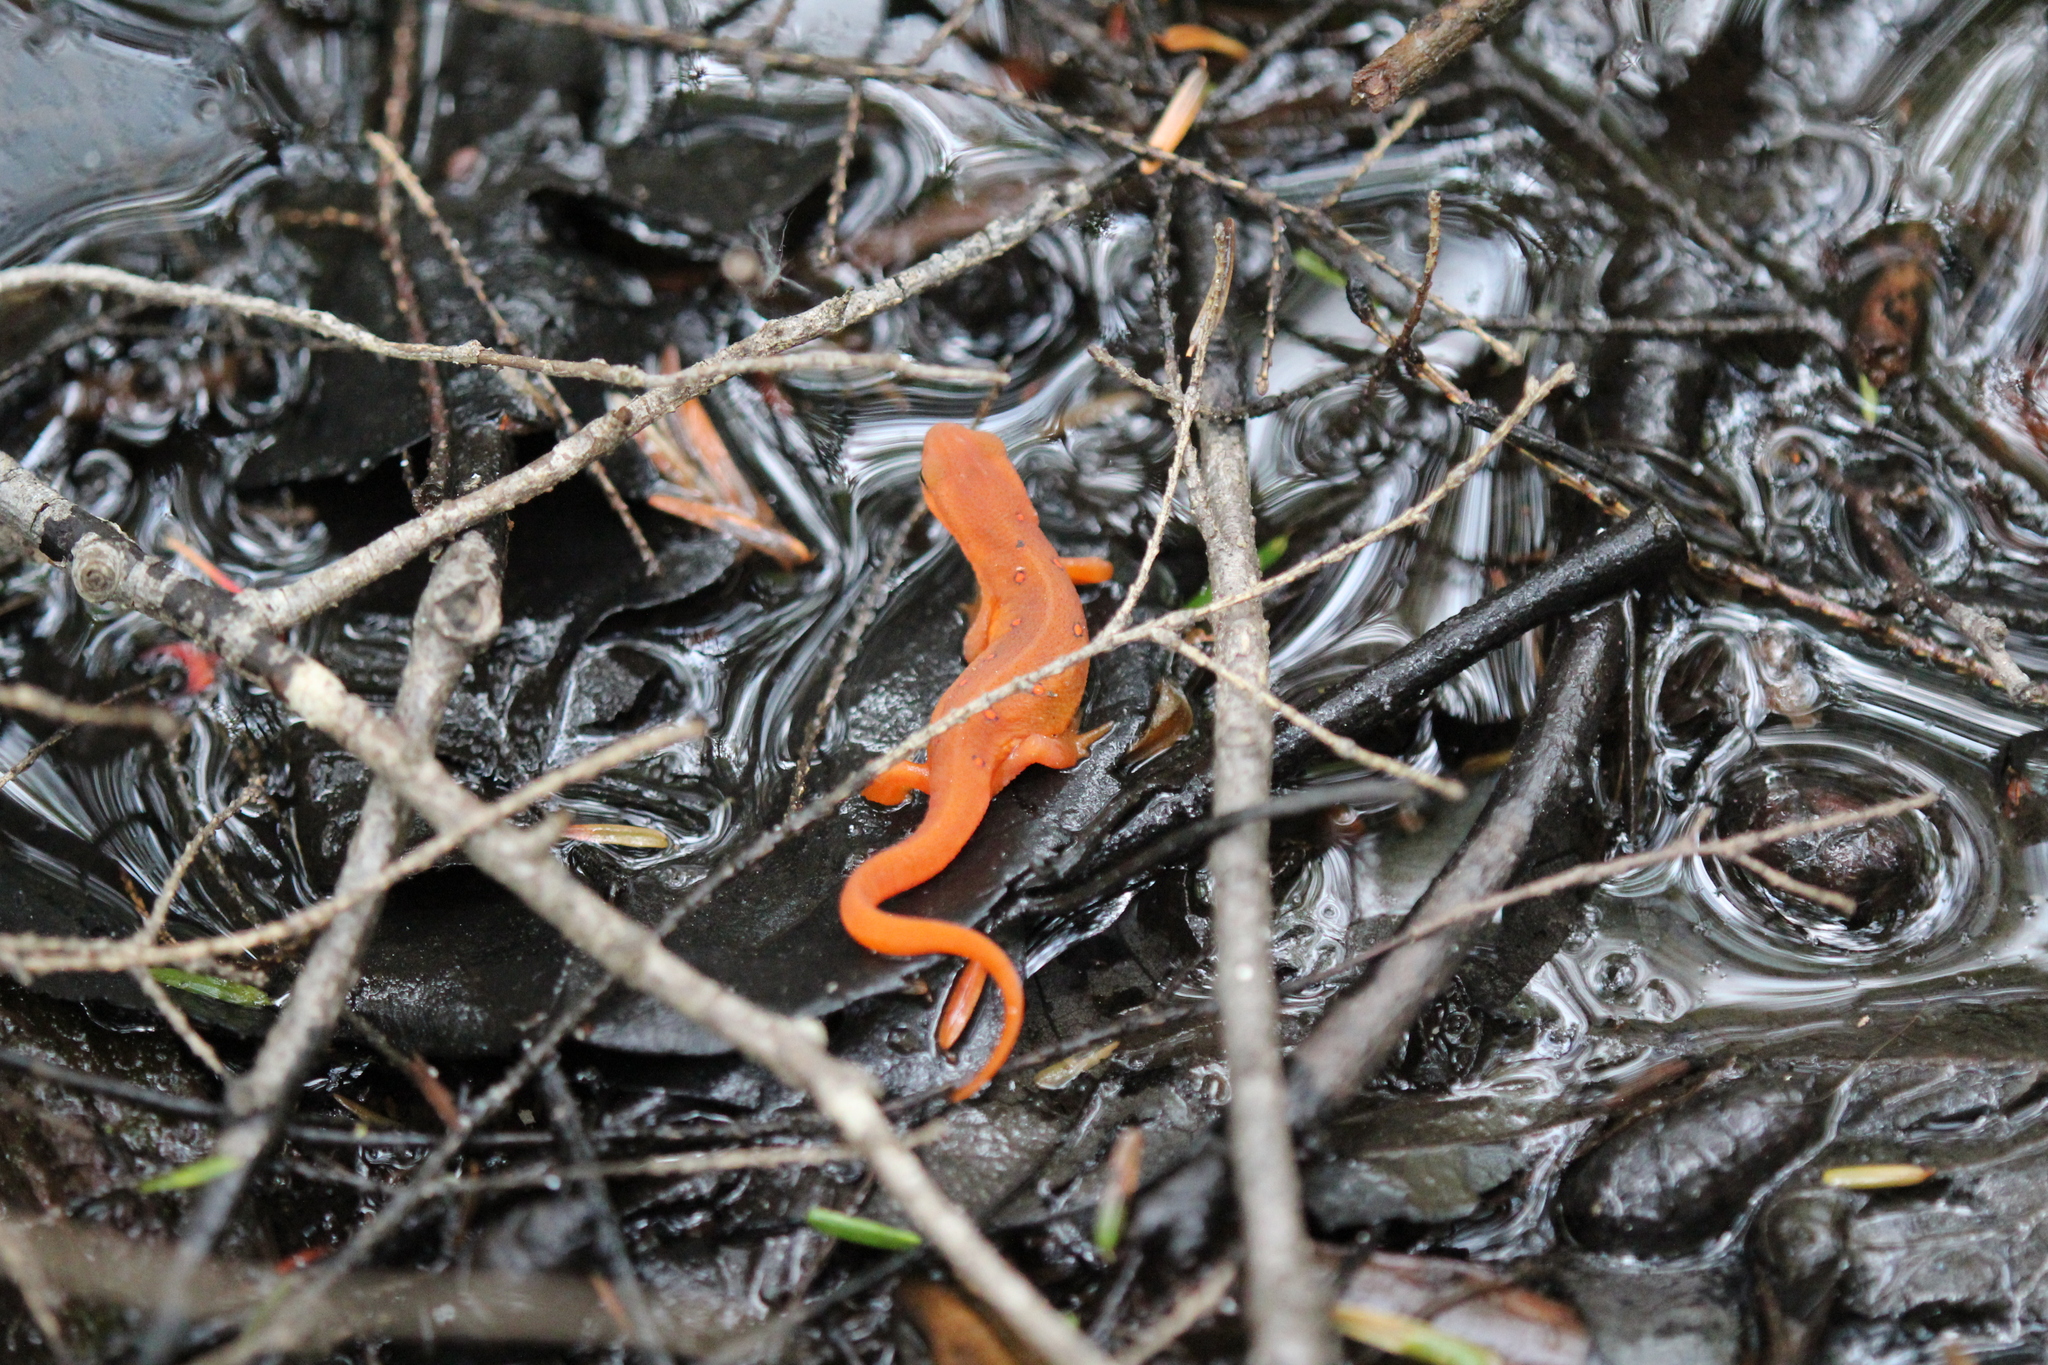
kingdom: Animalia
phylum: Chordata
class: Amphibia
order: Caudata
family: Salamandridae
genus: Notophthalmus
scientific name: Notophthalmus viridescens
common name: Eastern newt
